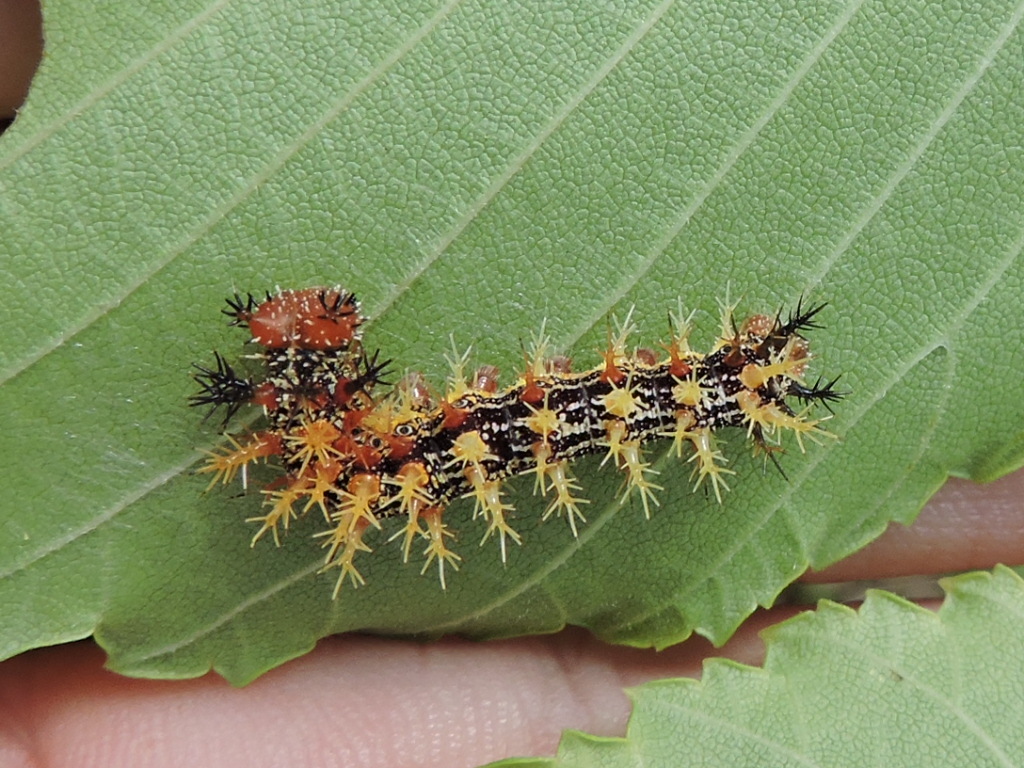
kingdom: Animalia
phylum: Arthropoda
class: Insecta
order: Lepidoptera
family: Nymphalidae
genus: Polygonia
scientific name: Polygonia interrogationis
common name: Question mark
